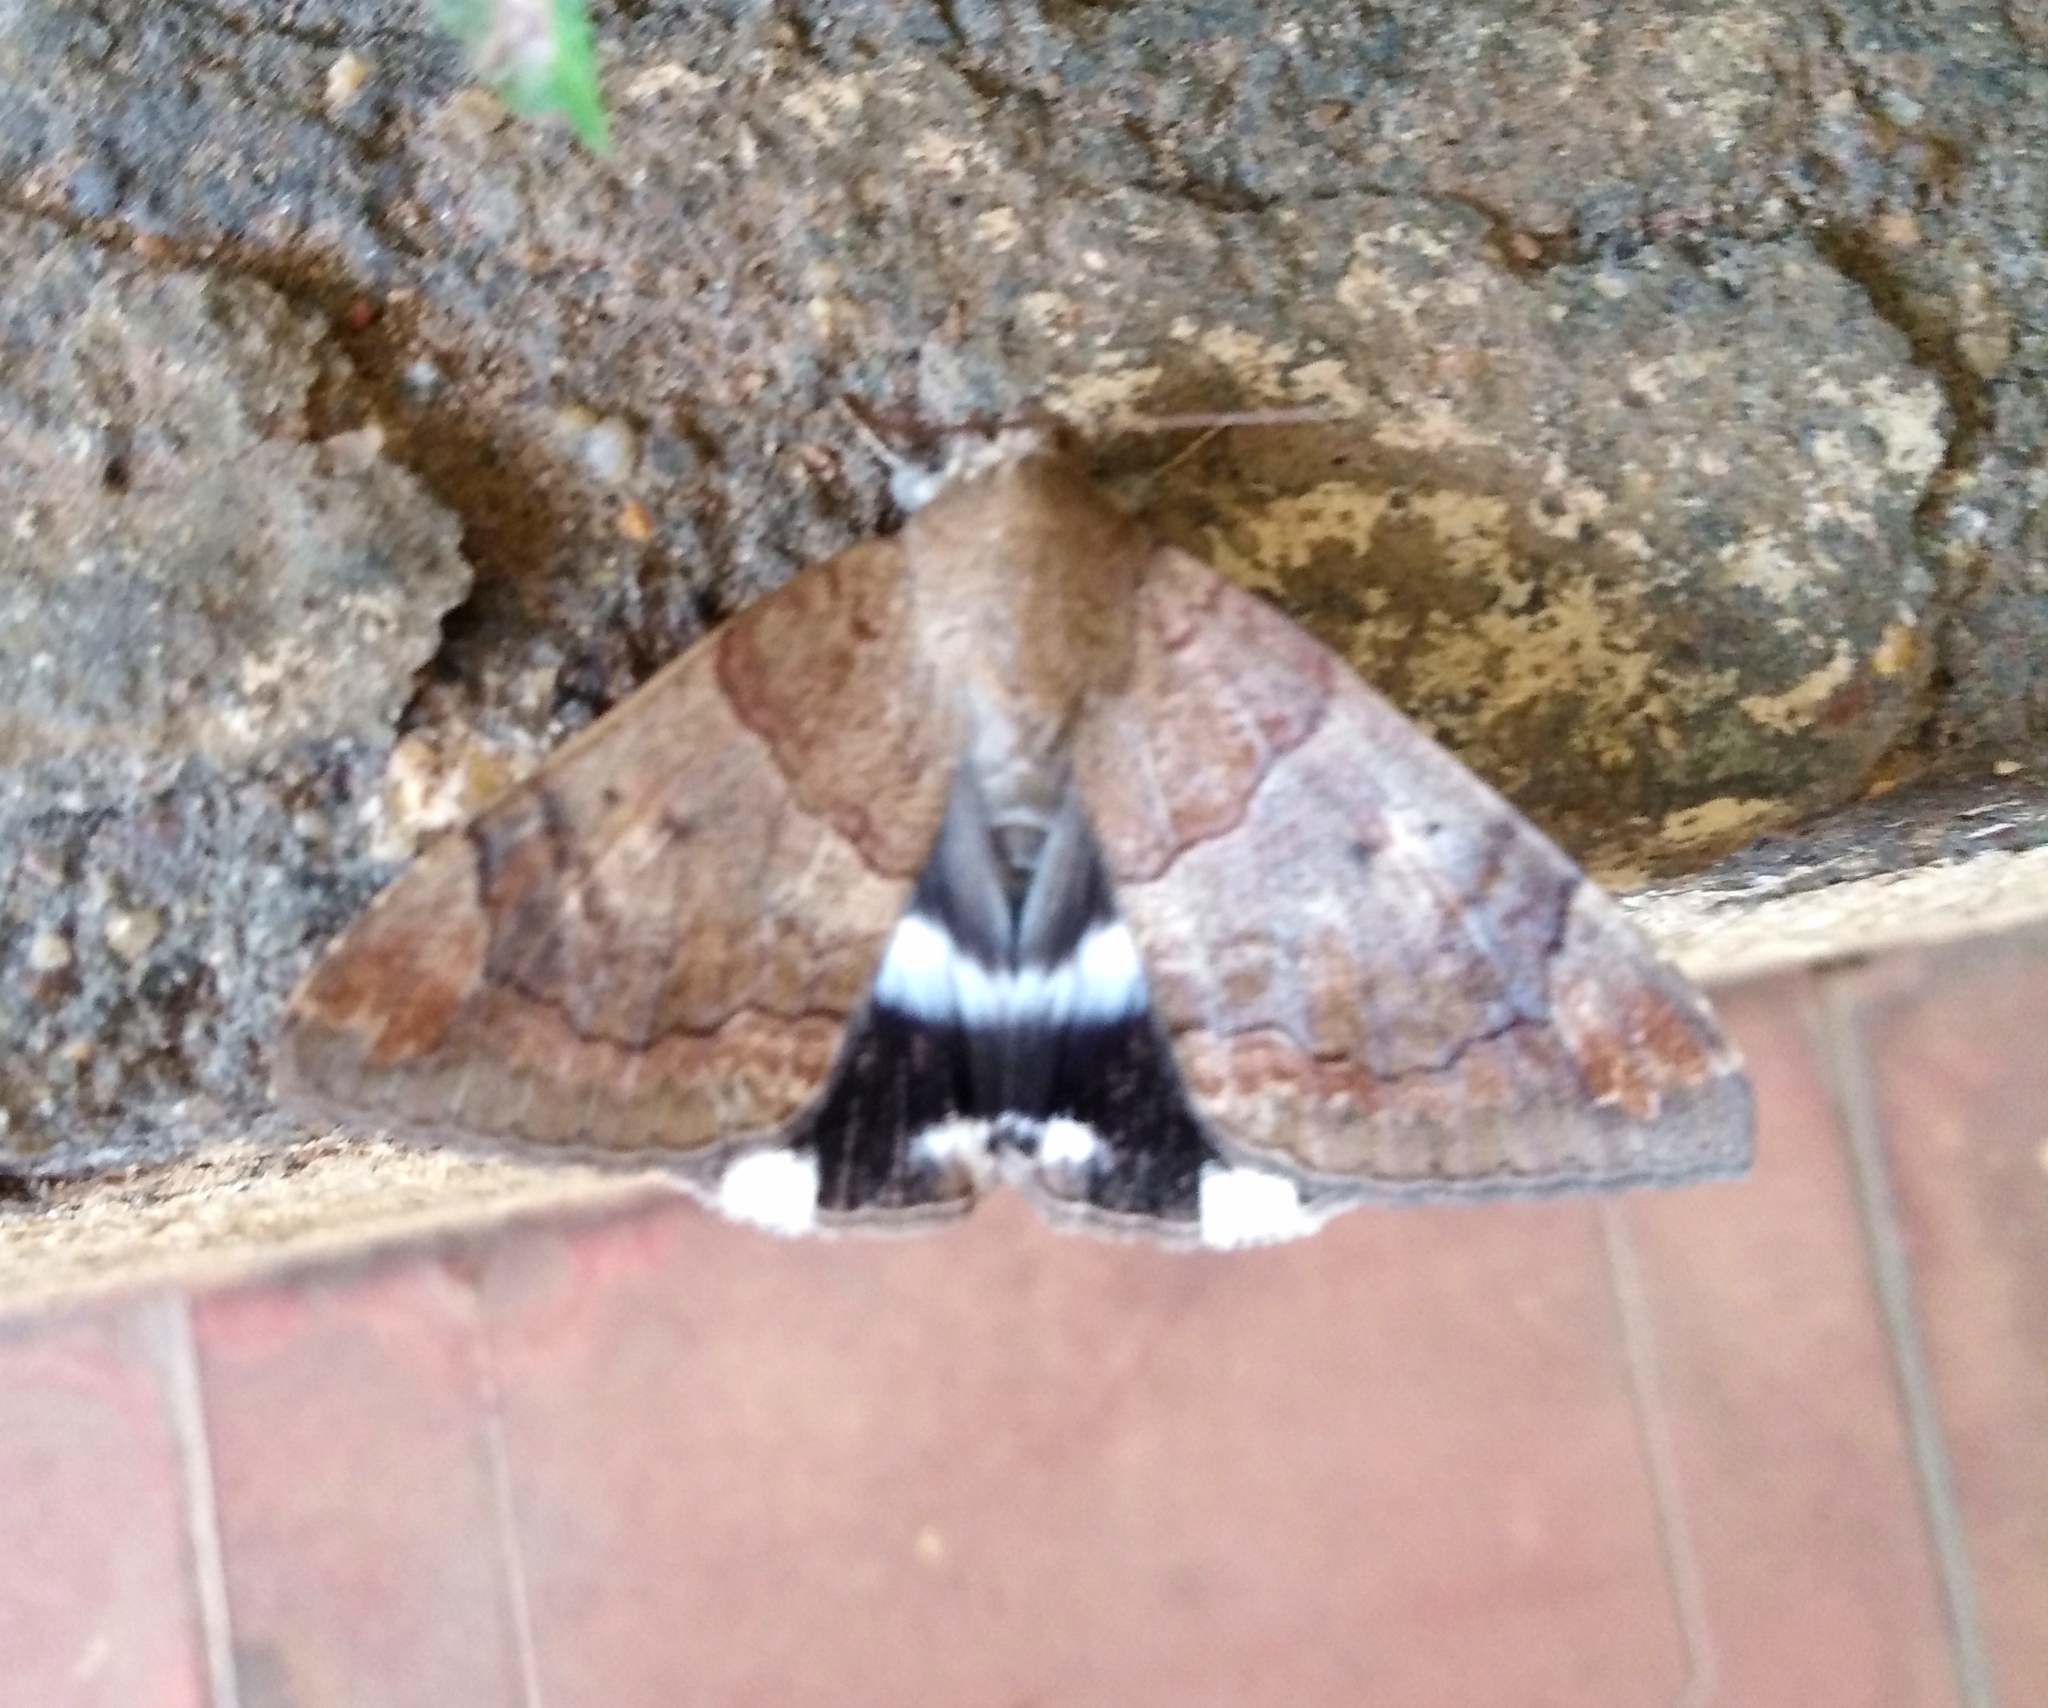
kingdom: Animalia
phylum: Arthropoda
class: Insecta
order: Lepidoptera
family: Erebidae
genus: Achaea
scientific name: Achaea janata
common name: Croton caterpillar
